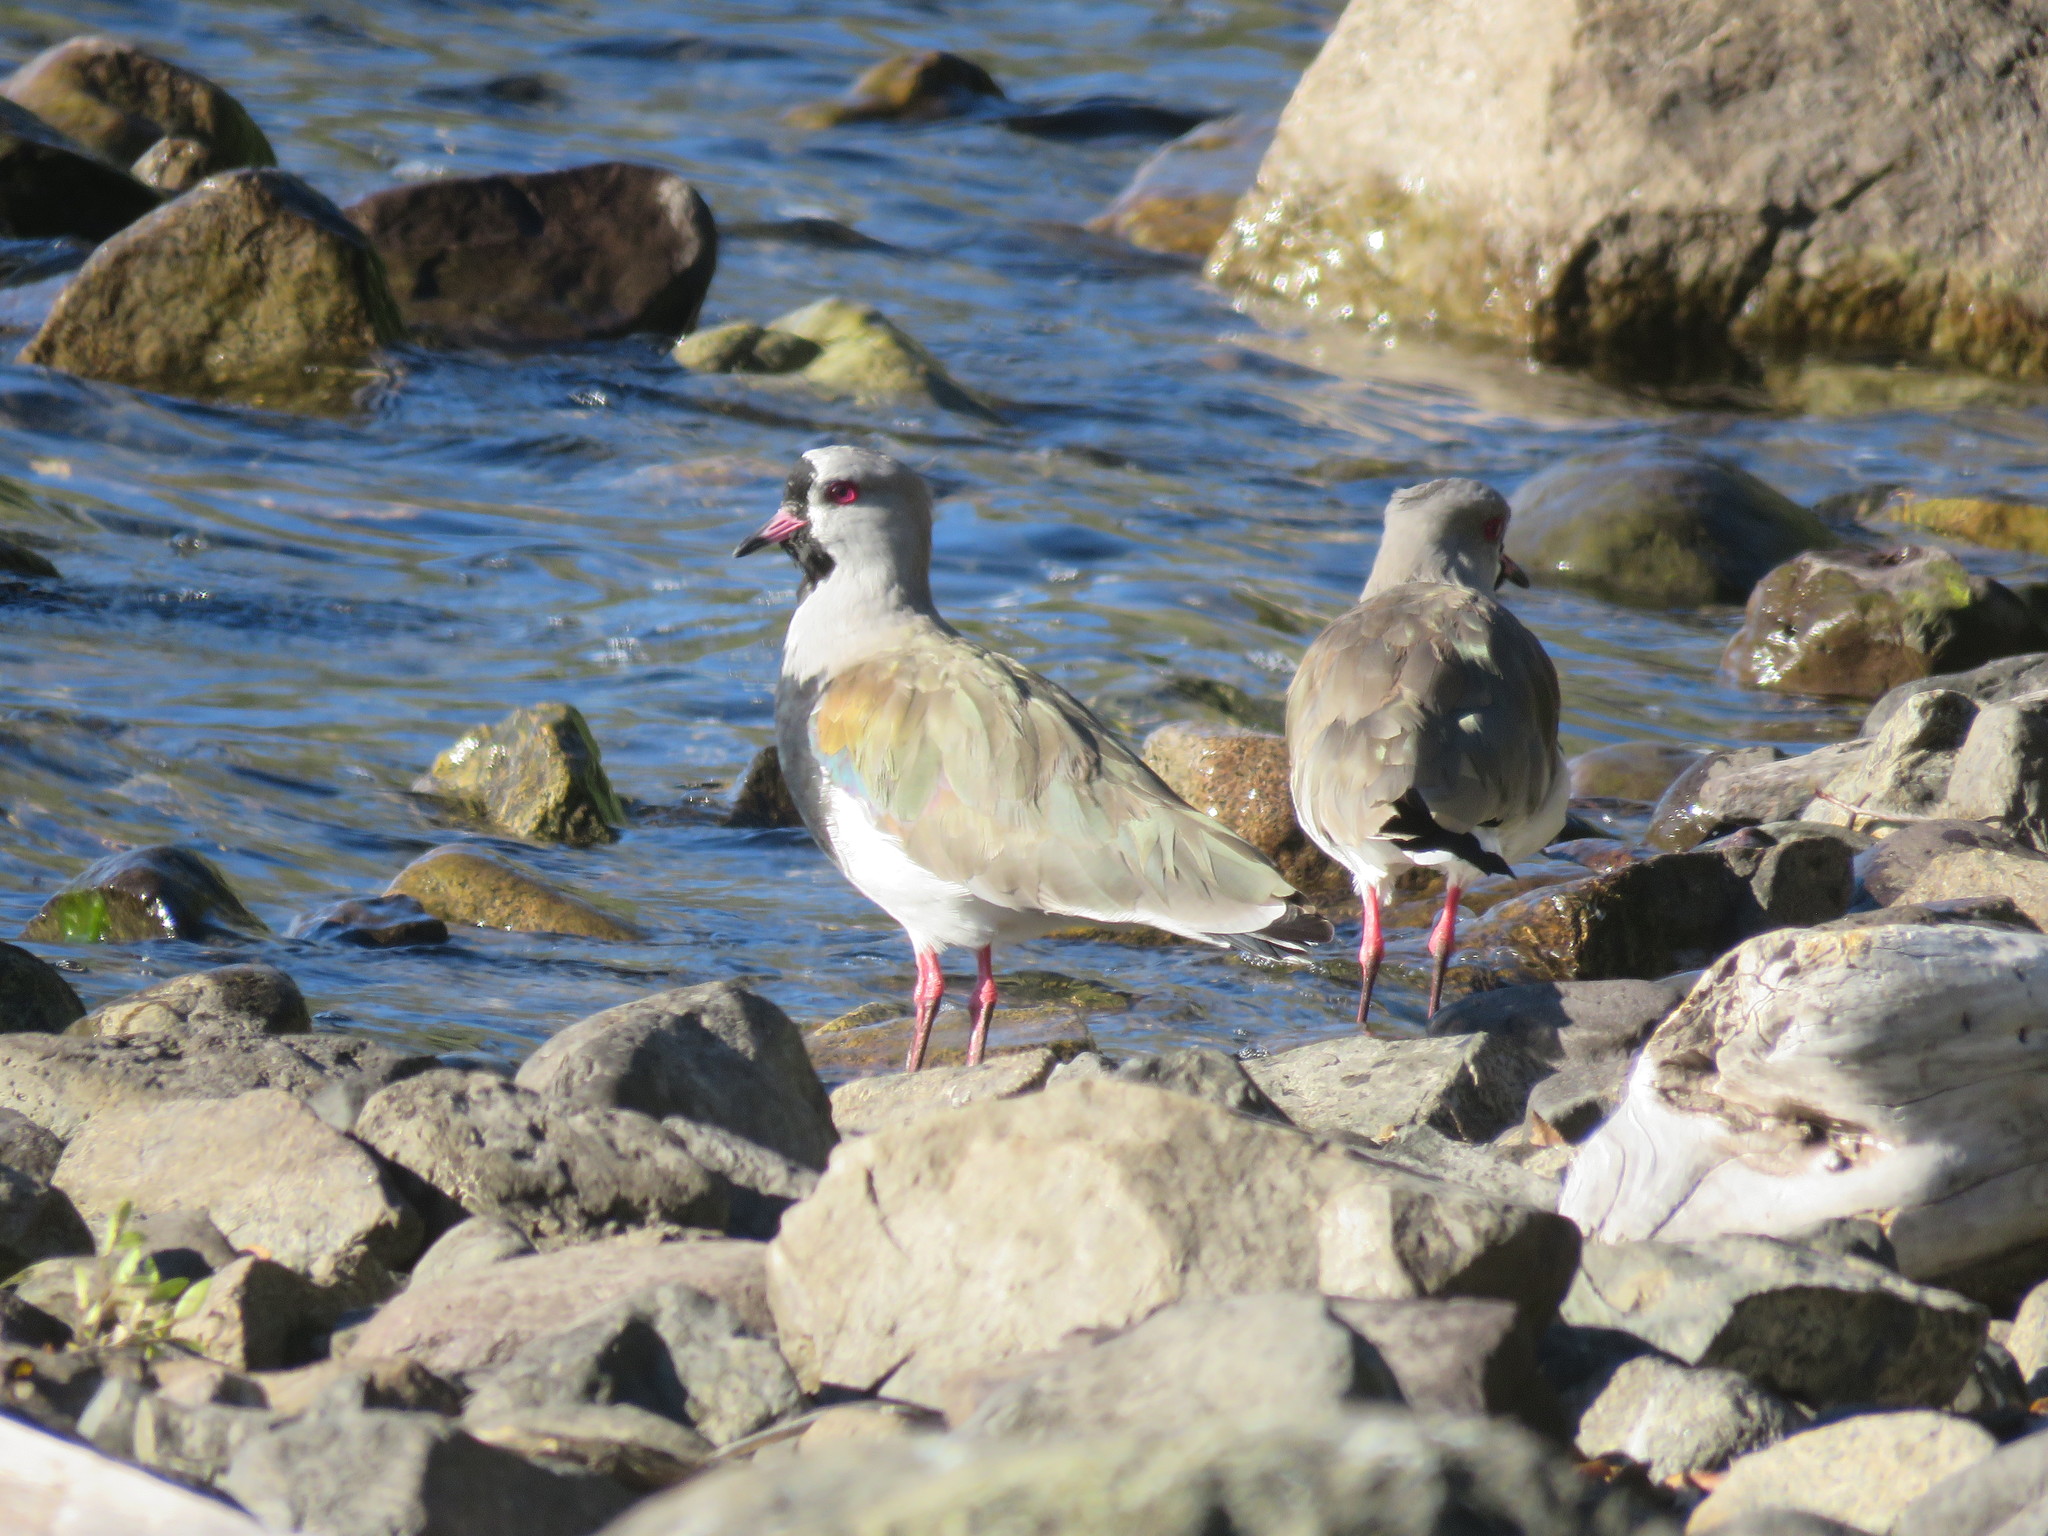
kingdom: Animalia
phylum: Chordata
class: Aves
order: Charadriiformes
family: Charadriidae
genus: Vanellus
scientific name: Vanellus chilensis
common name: Southern lapwing
